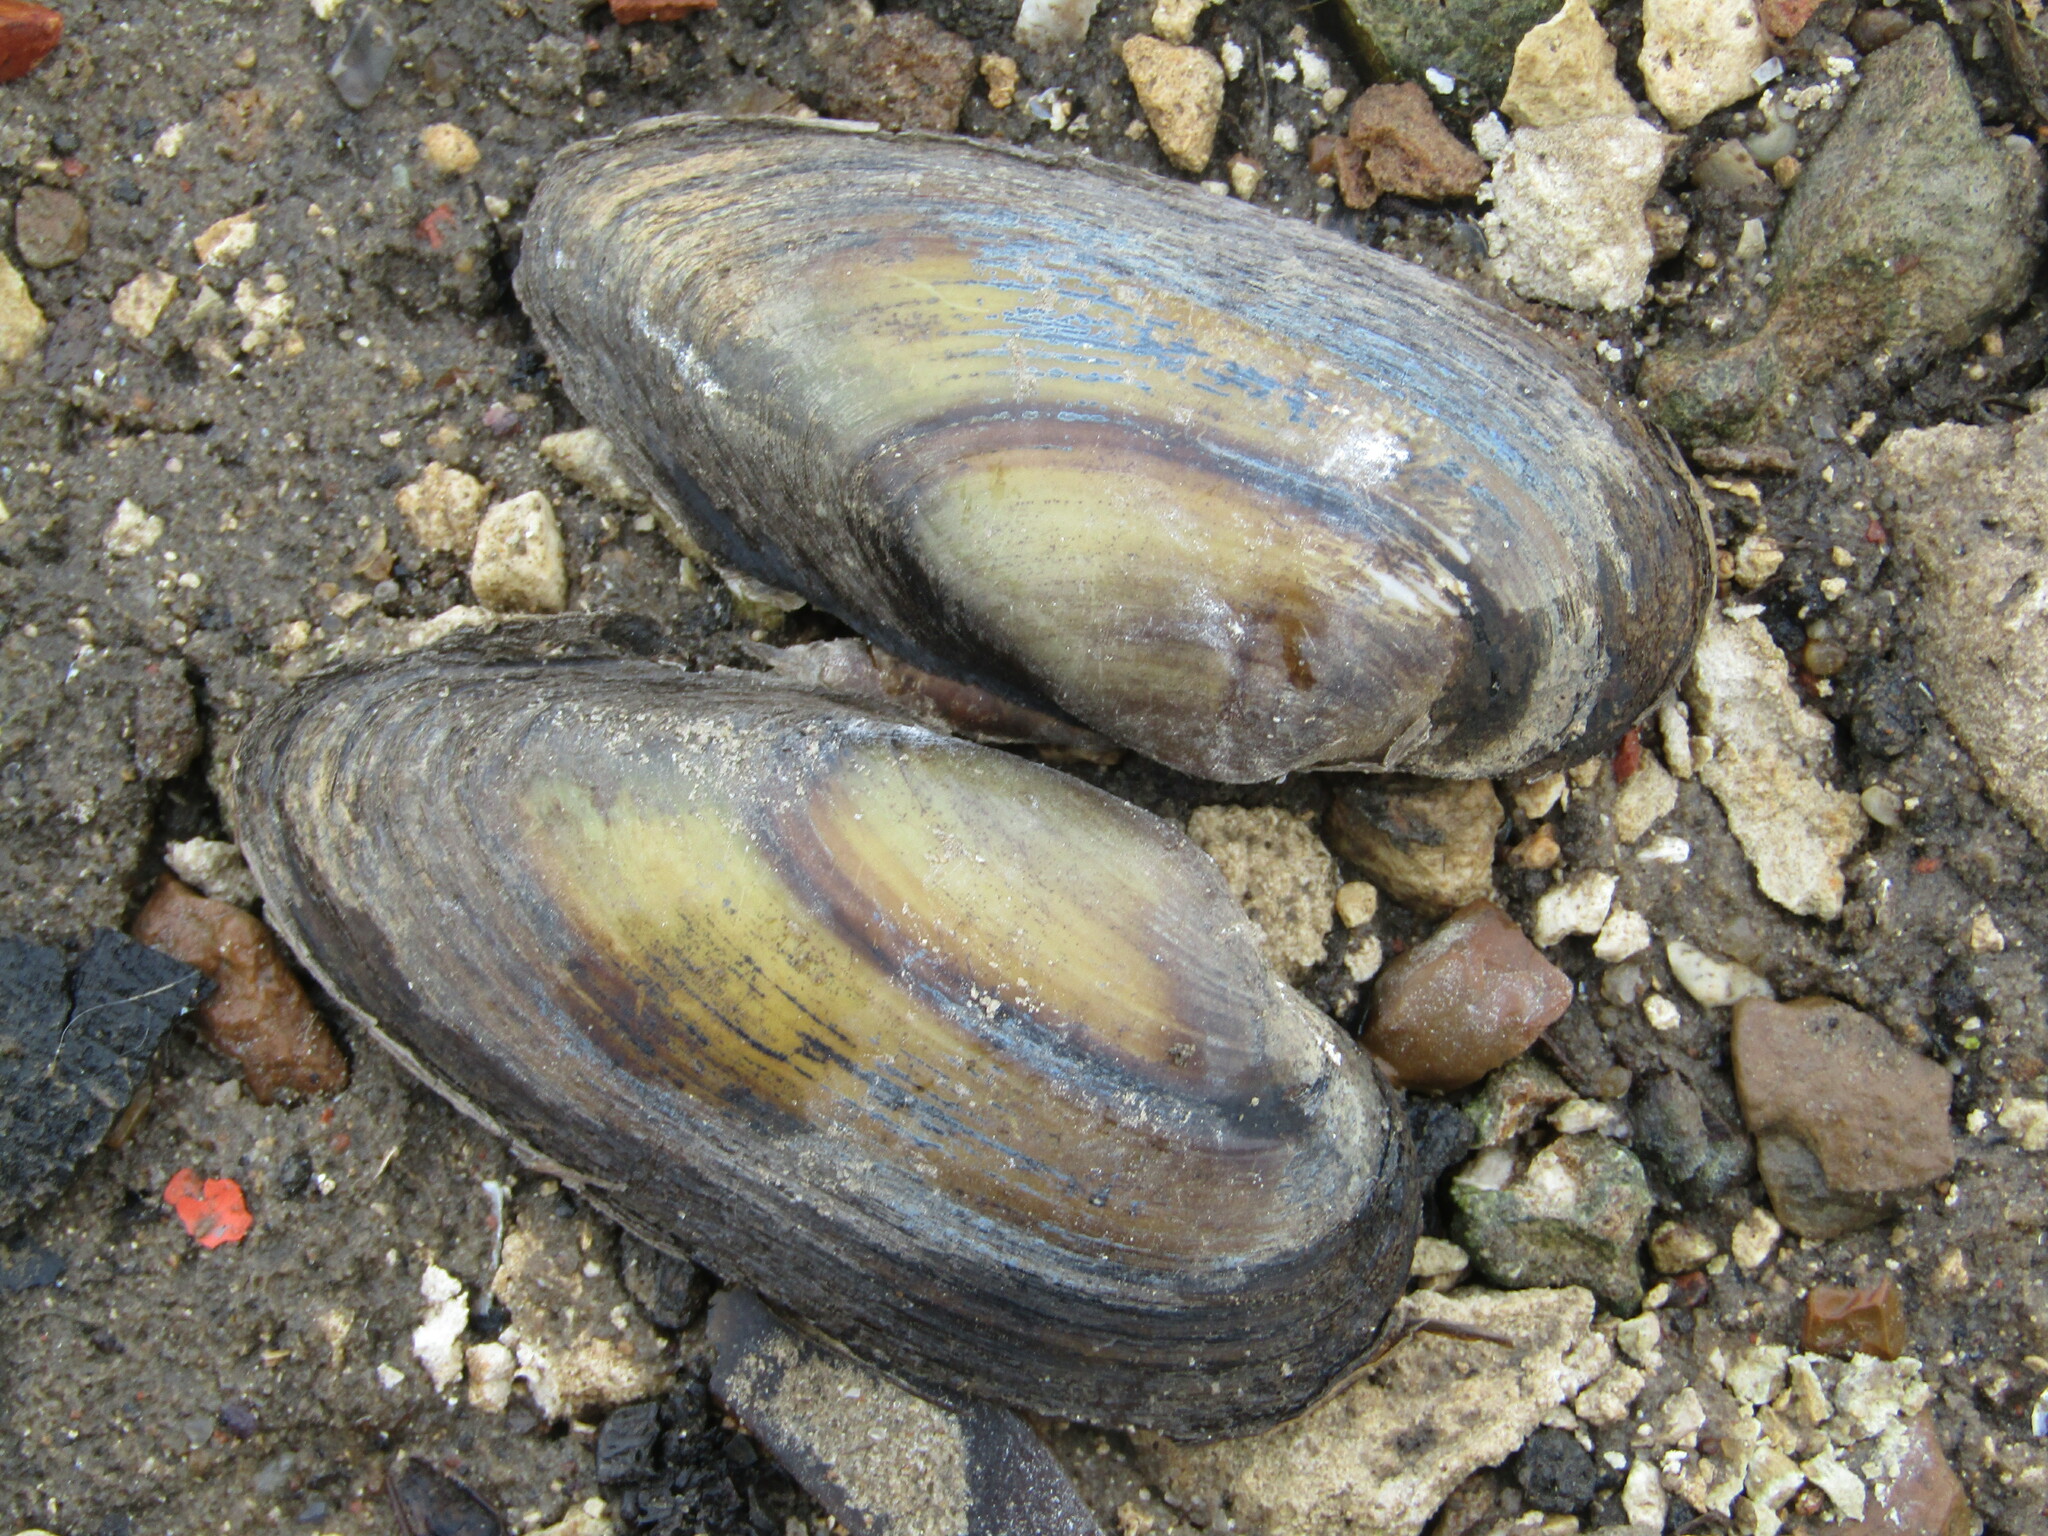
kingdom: Animalia
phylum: Mollusca
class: Bivalvia
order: Unionida
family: Unionidae
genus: Unio
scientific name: Unio pictorum
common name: Painter's mussel
